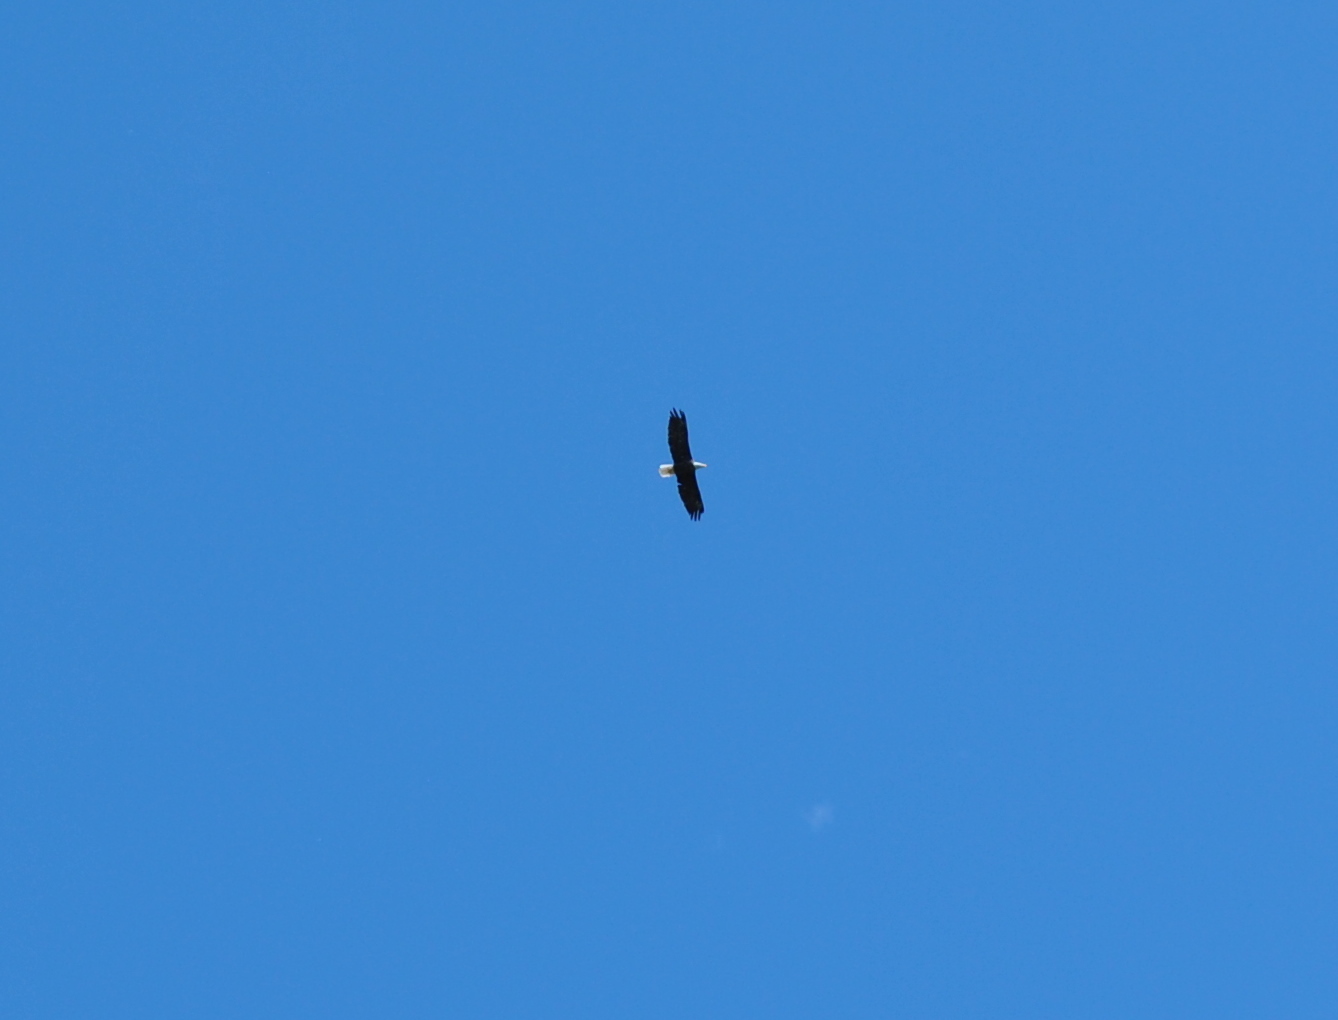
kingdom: Animalia
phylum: Chordata
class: Aves
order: Accipitriformes
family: Accipitridae
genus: Haliaeetus
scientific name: Haliaeetus leucocephalus
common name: Bald eagle
